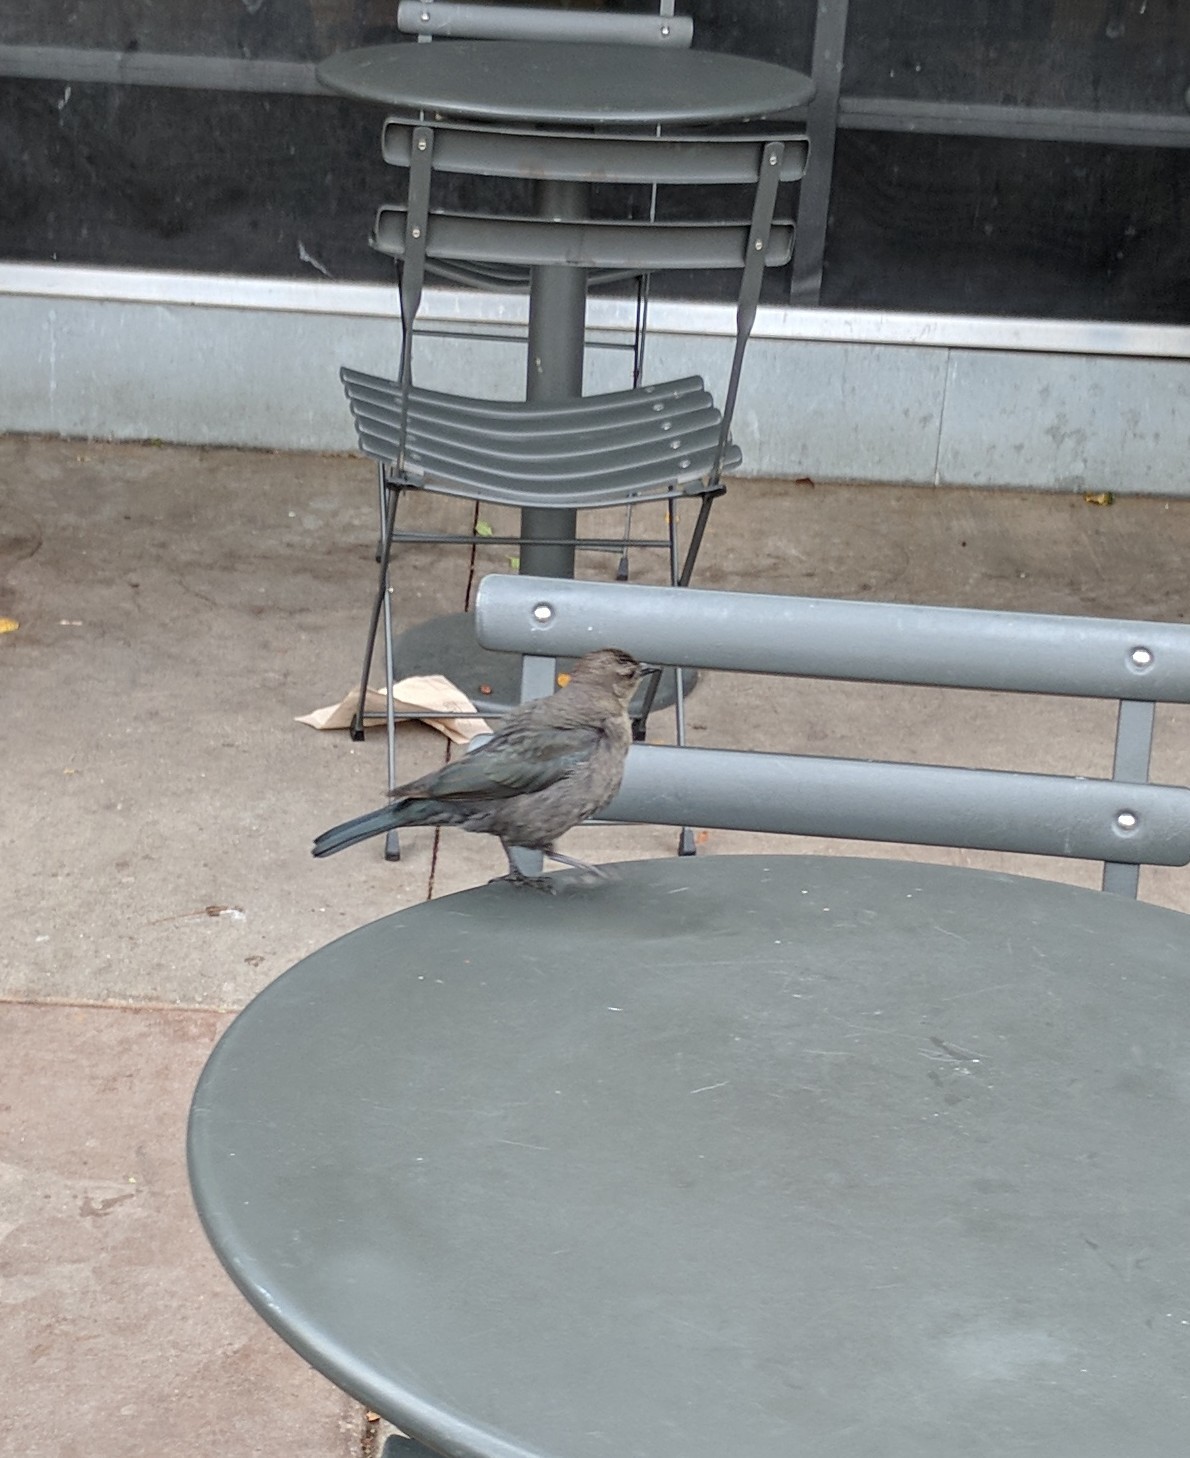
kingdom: Animalia
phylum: Chordata
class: Aves
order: Passeriformes
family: Icteridae
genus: Euphagus
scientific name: Euphagus cyanocephalus
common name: Brewer's blackbird
